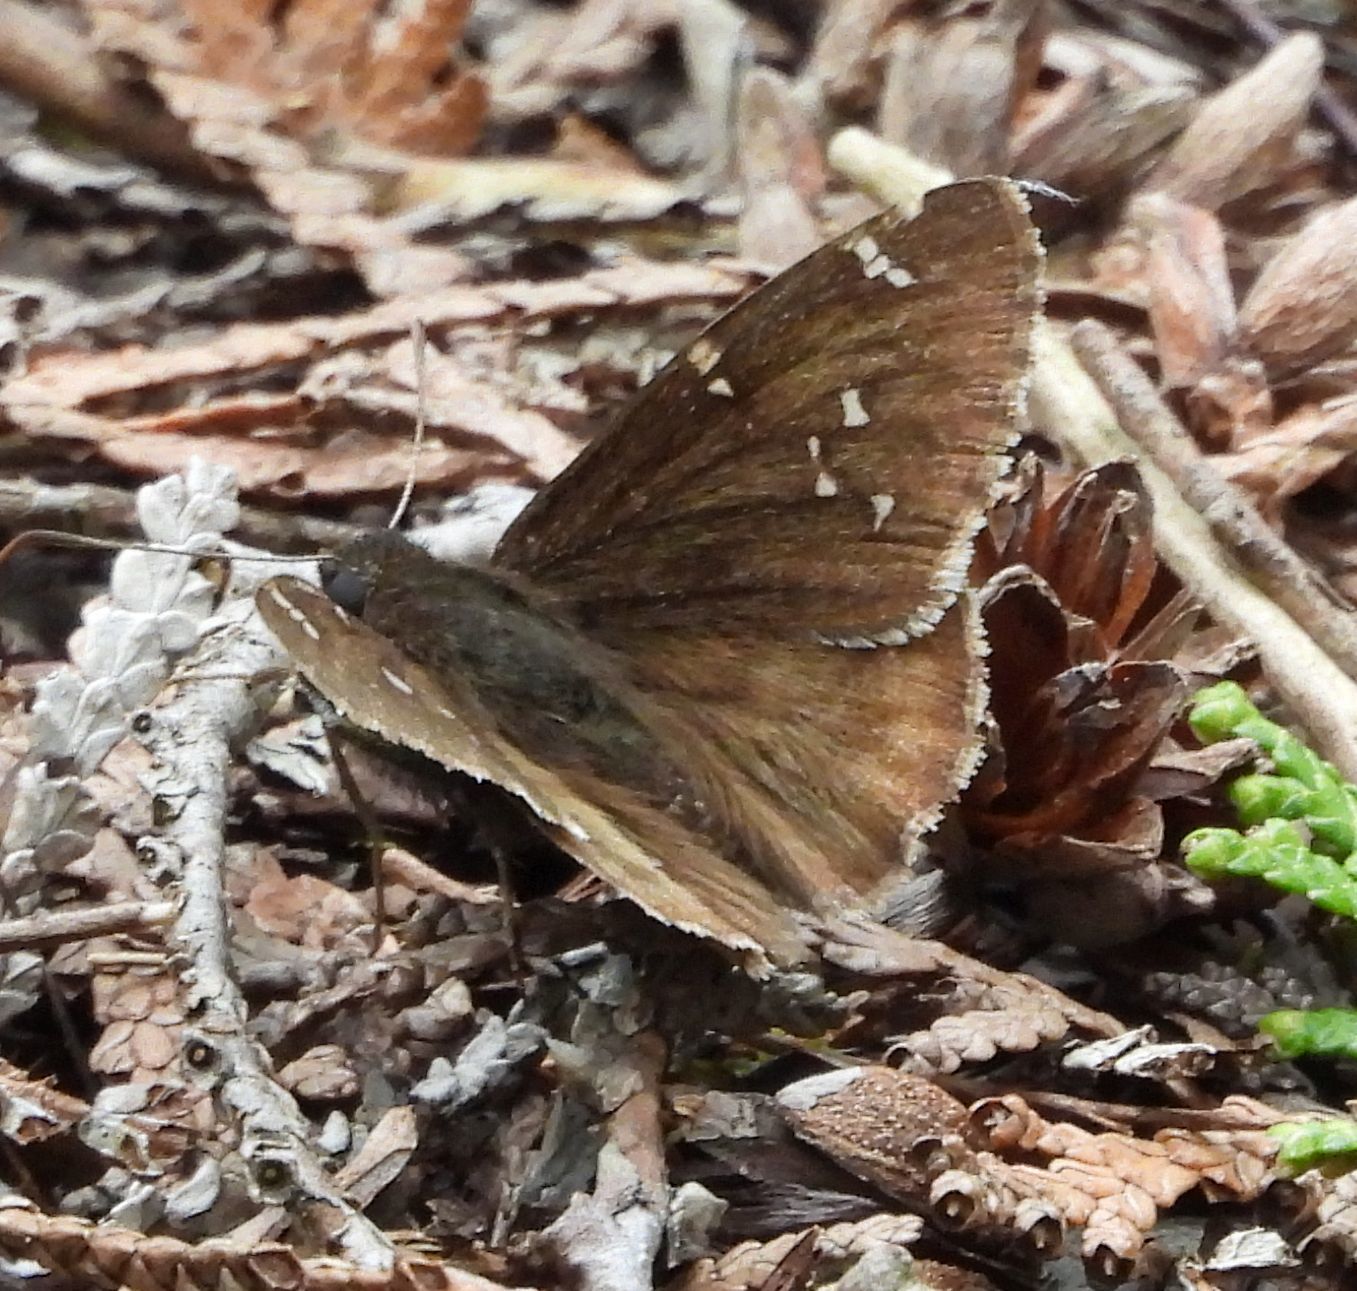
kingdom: Animalia
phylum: Arthropoda
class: Insecta
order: Lepidoptera
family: Hesperiidae
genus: Thorybes
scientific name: Thorybes pylades
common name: Northern cloudywing
